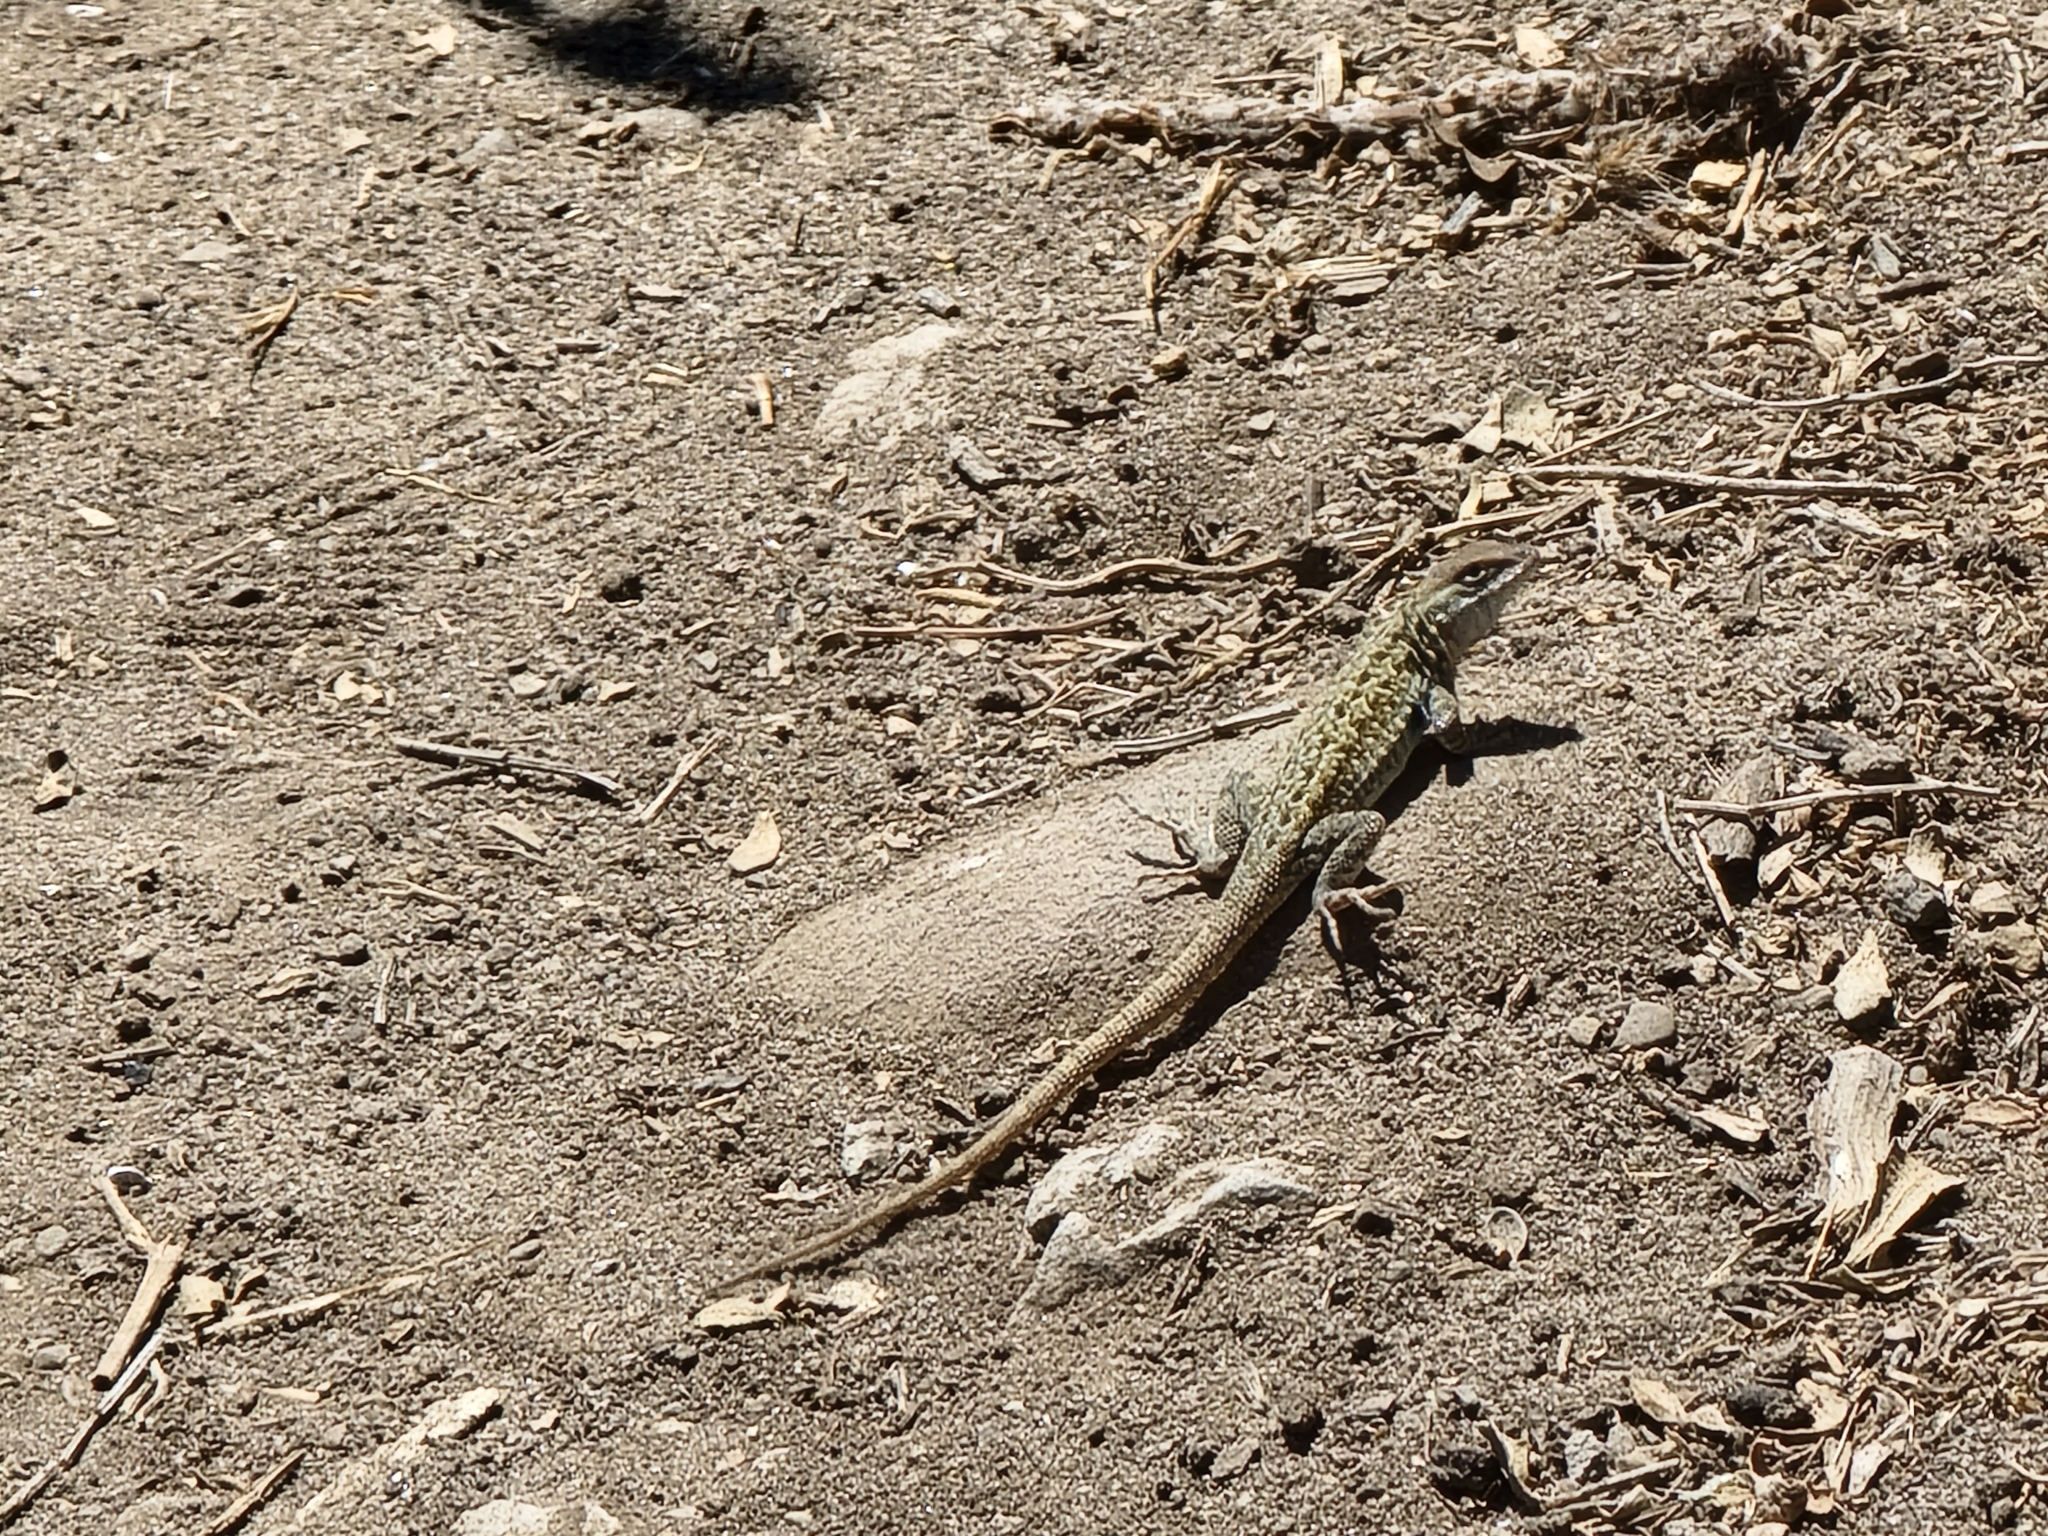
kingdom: Animalia
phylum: Chordata
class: Squamata
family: Phrynosomatidae
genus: Uta
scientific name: Uta stansburiana
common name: Side-blotched lizard
